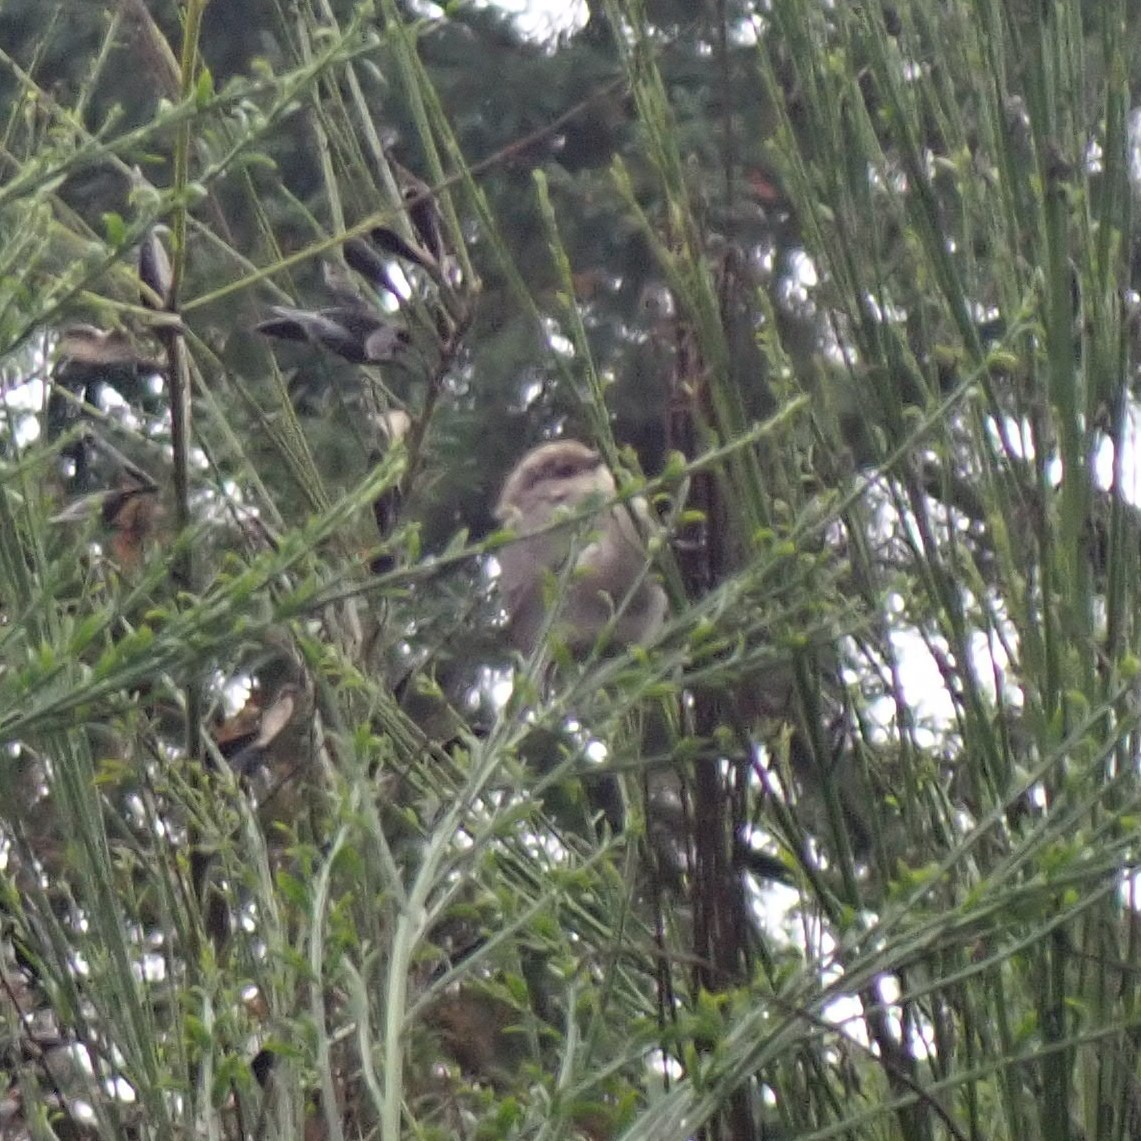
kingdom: Animalia
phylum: Chordata
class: Aves
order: Passeriformes
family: Aegithalidae
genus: Psaltriparus
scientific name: Psaltriparus minimus
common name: American bushtit
